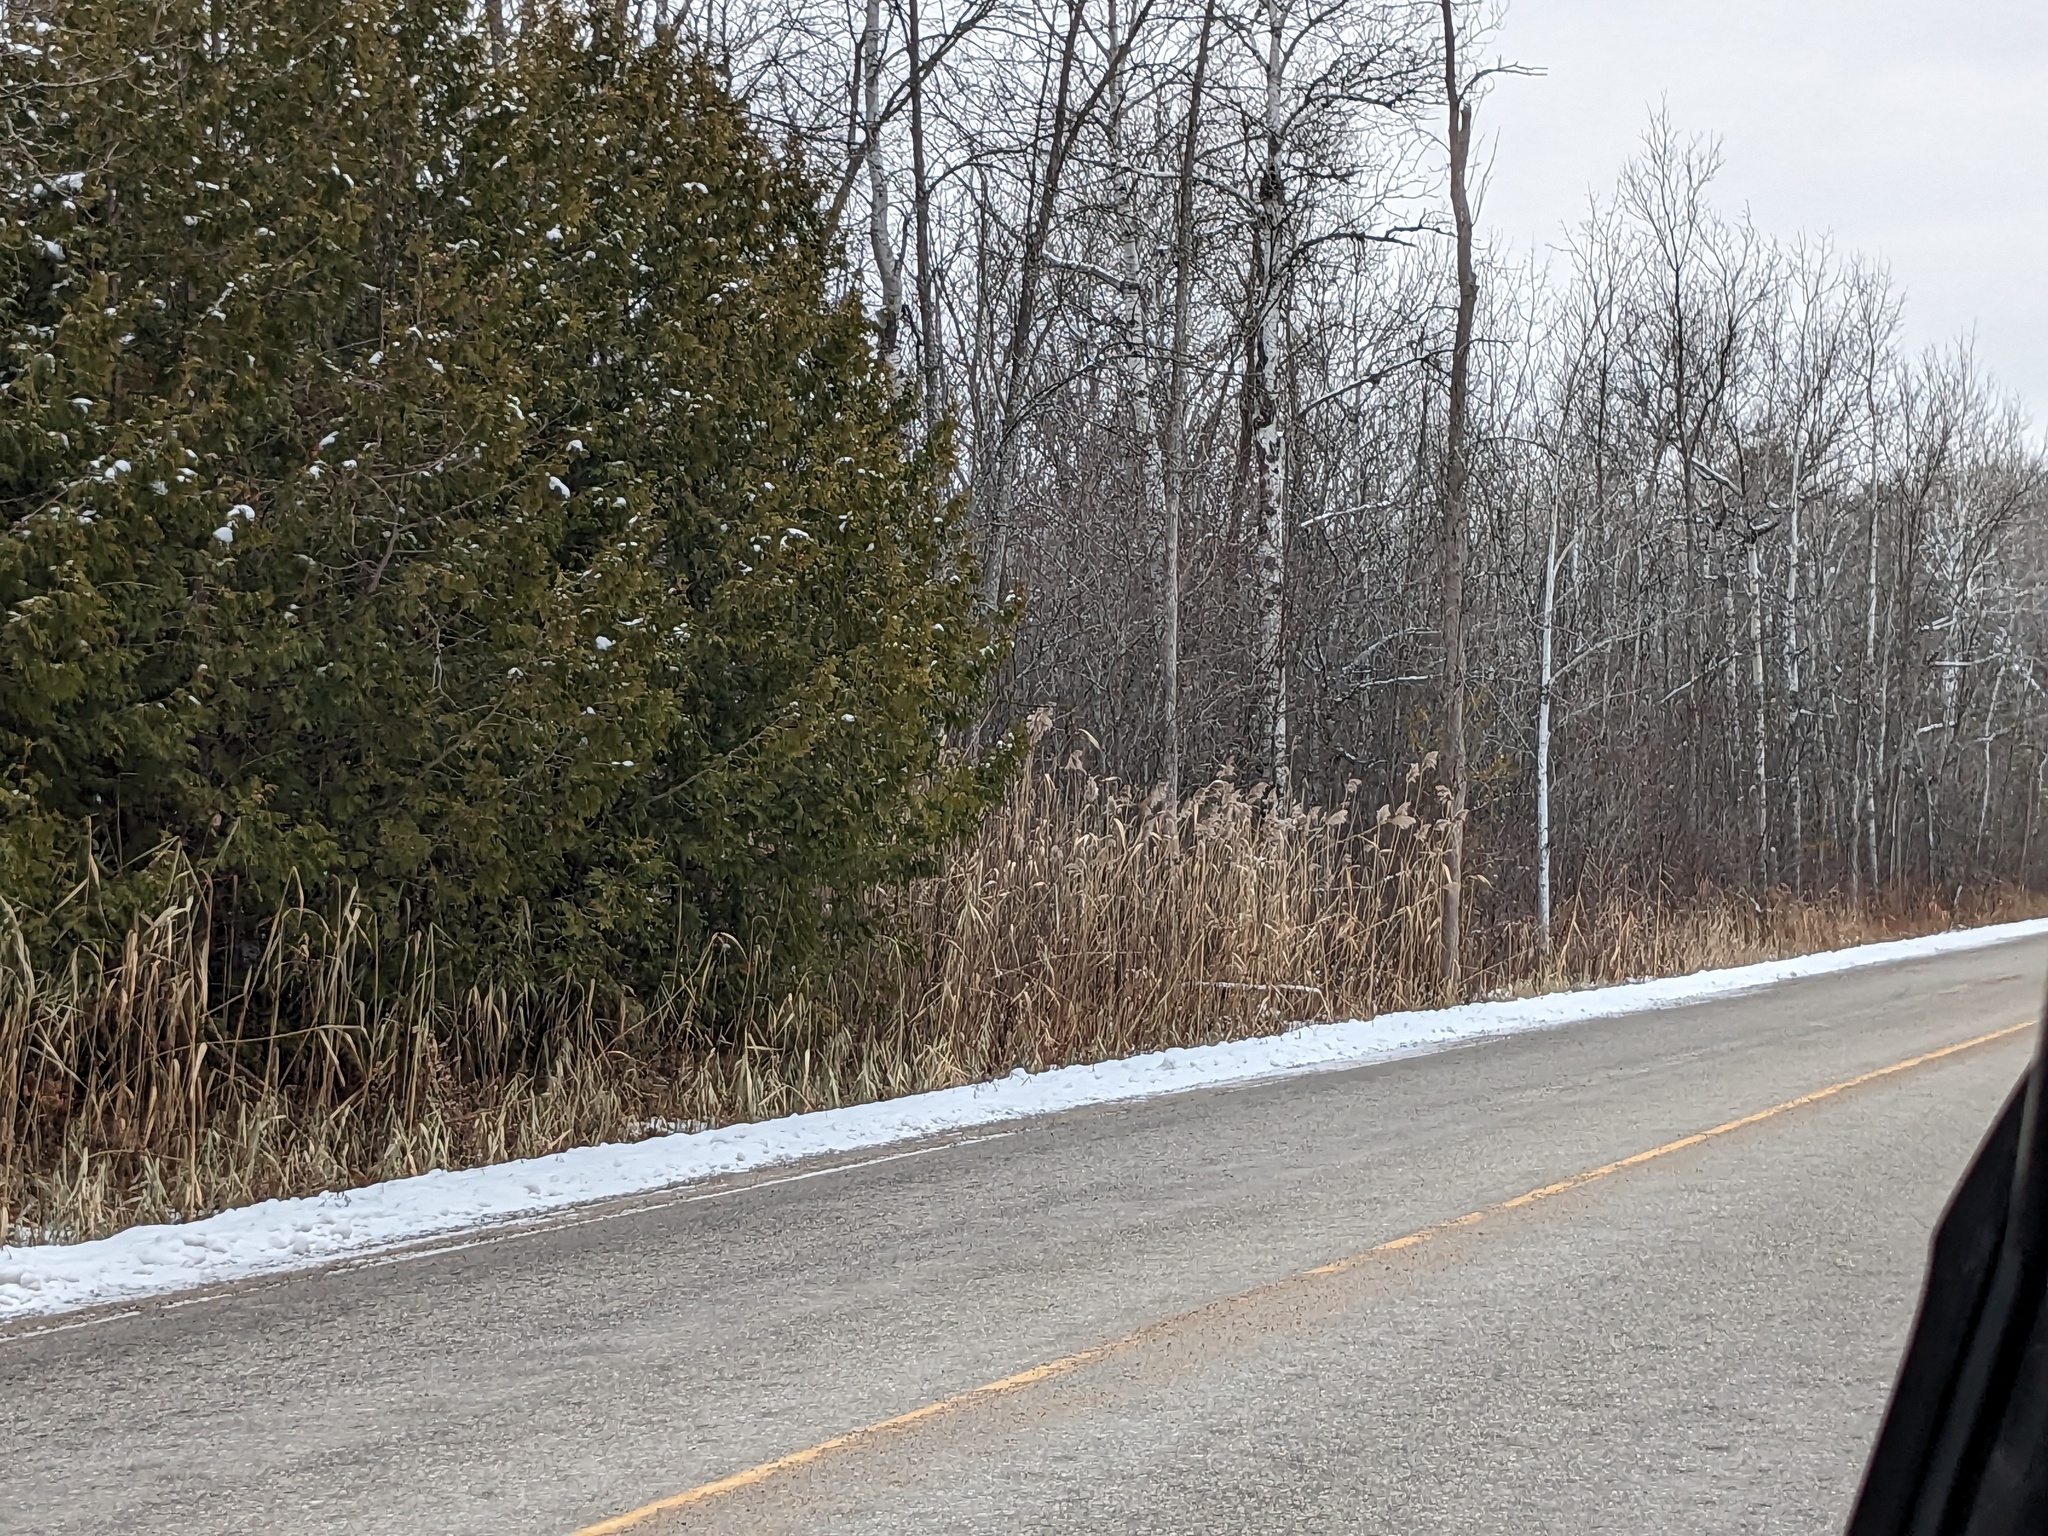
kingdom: Plantae
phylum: Tracheophyta
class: Liliopsida
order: Poales
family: Poaceae
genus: Phragmites
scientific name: Phragmites australis
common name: Common reed
